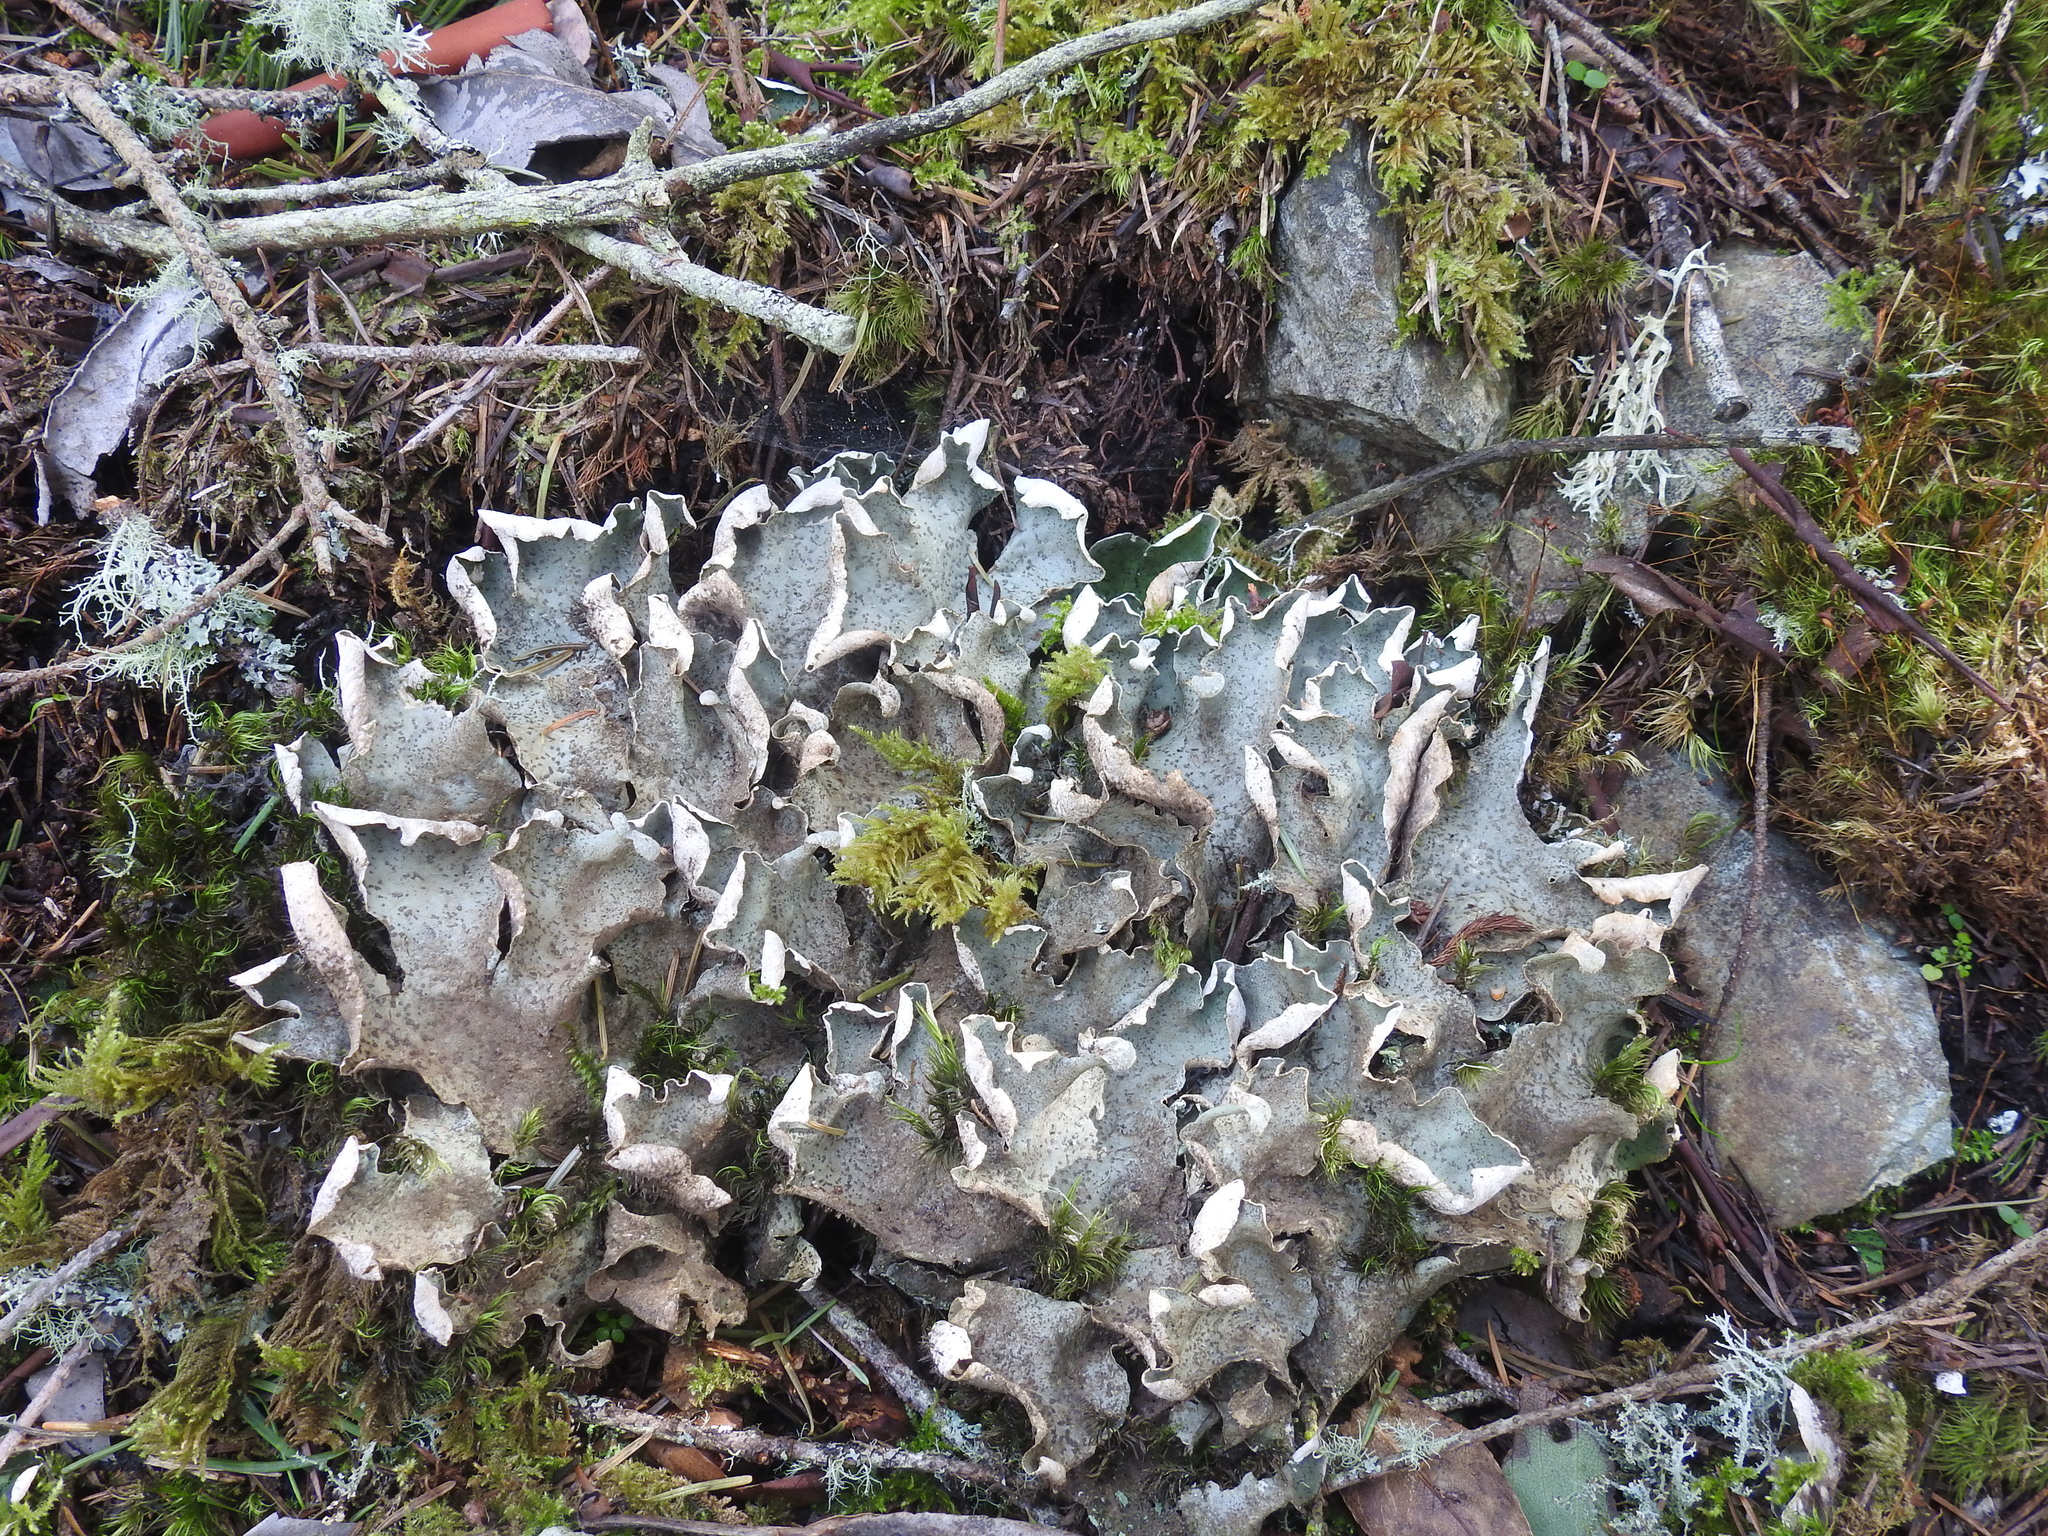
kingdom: Fungi
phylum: Ascomycota
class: Lecanoromycetes
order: Peltigerales
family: Peltigeraceae
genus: Peltigera
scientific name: Peltigera britannica
